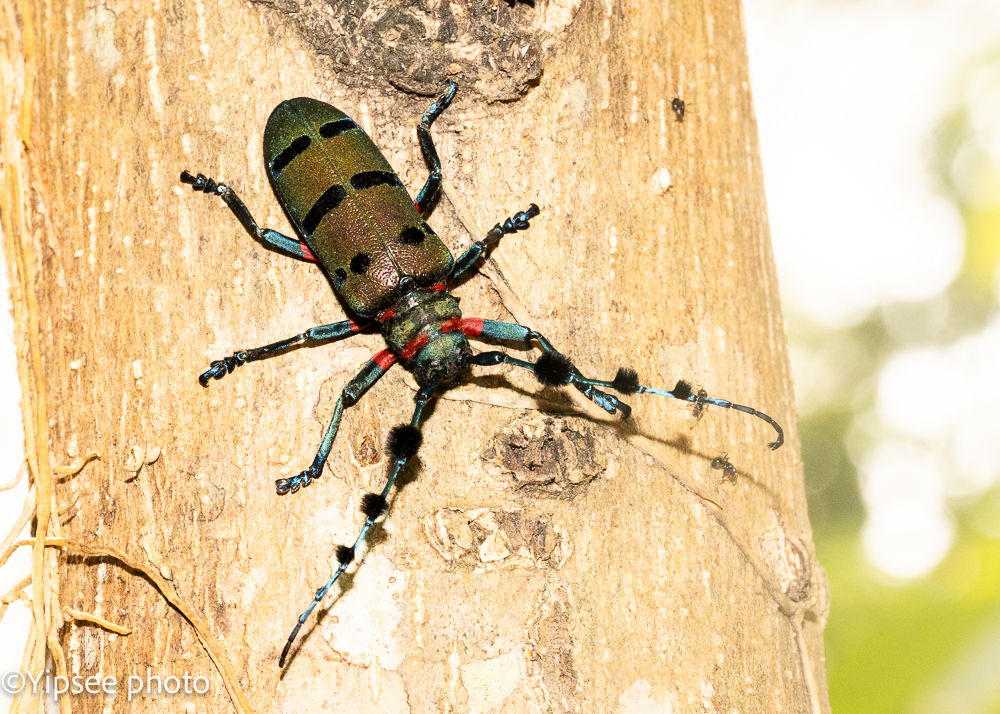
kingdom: Animalia
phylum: Arthropoda
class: Insecta
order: Coleoptera
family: Cerambycidae
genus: Thysia
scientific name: Thysia wallichii
